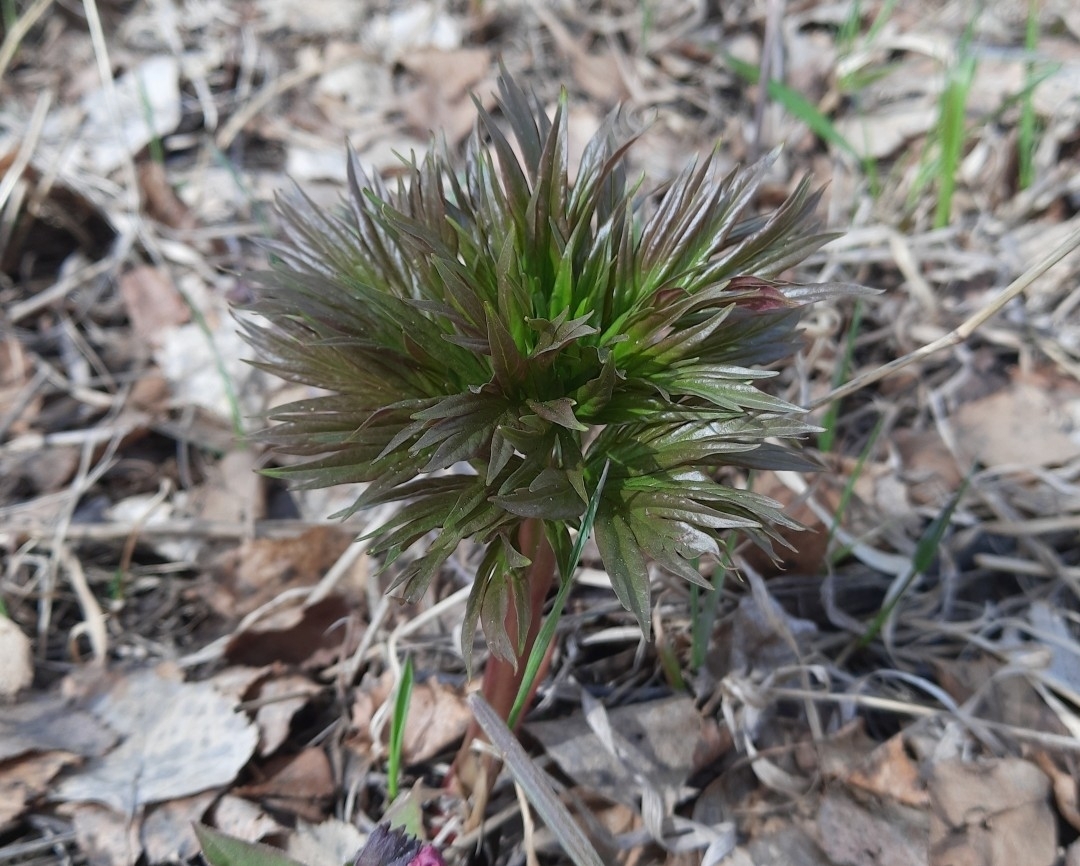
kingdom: Plantae
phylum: Tracheophyta
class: Magnoliopsida
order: Saxifragales
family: Paeoniaceae
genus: Paeonia
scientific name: Paeonia anomala
